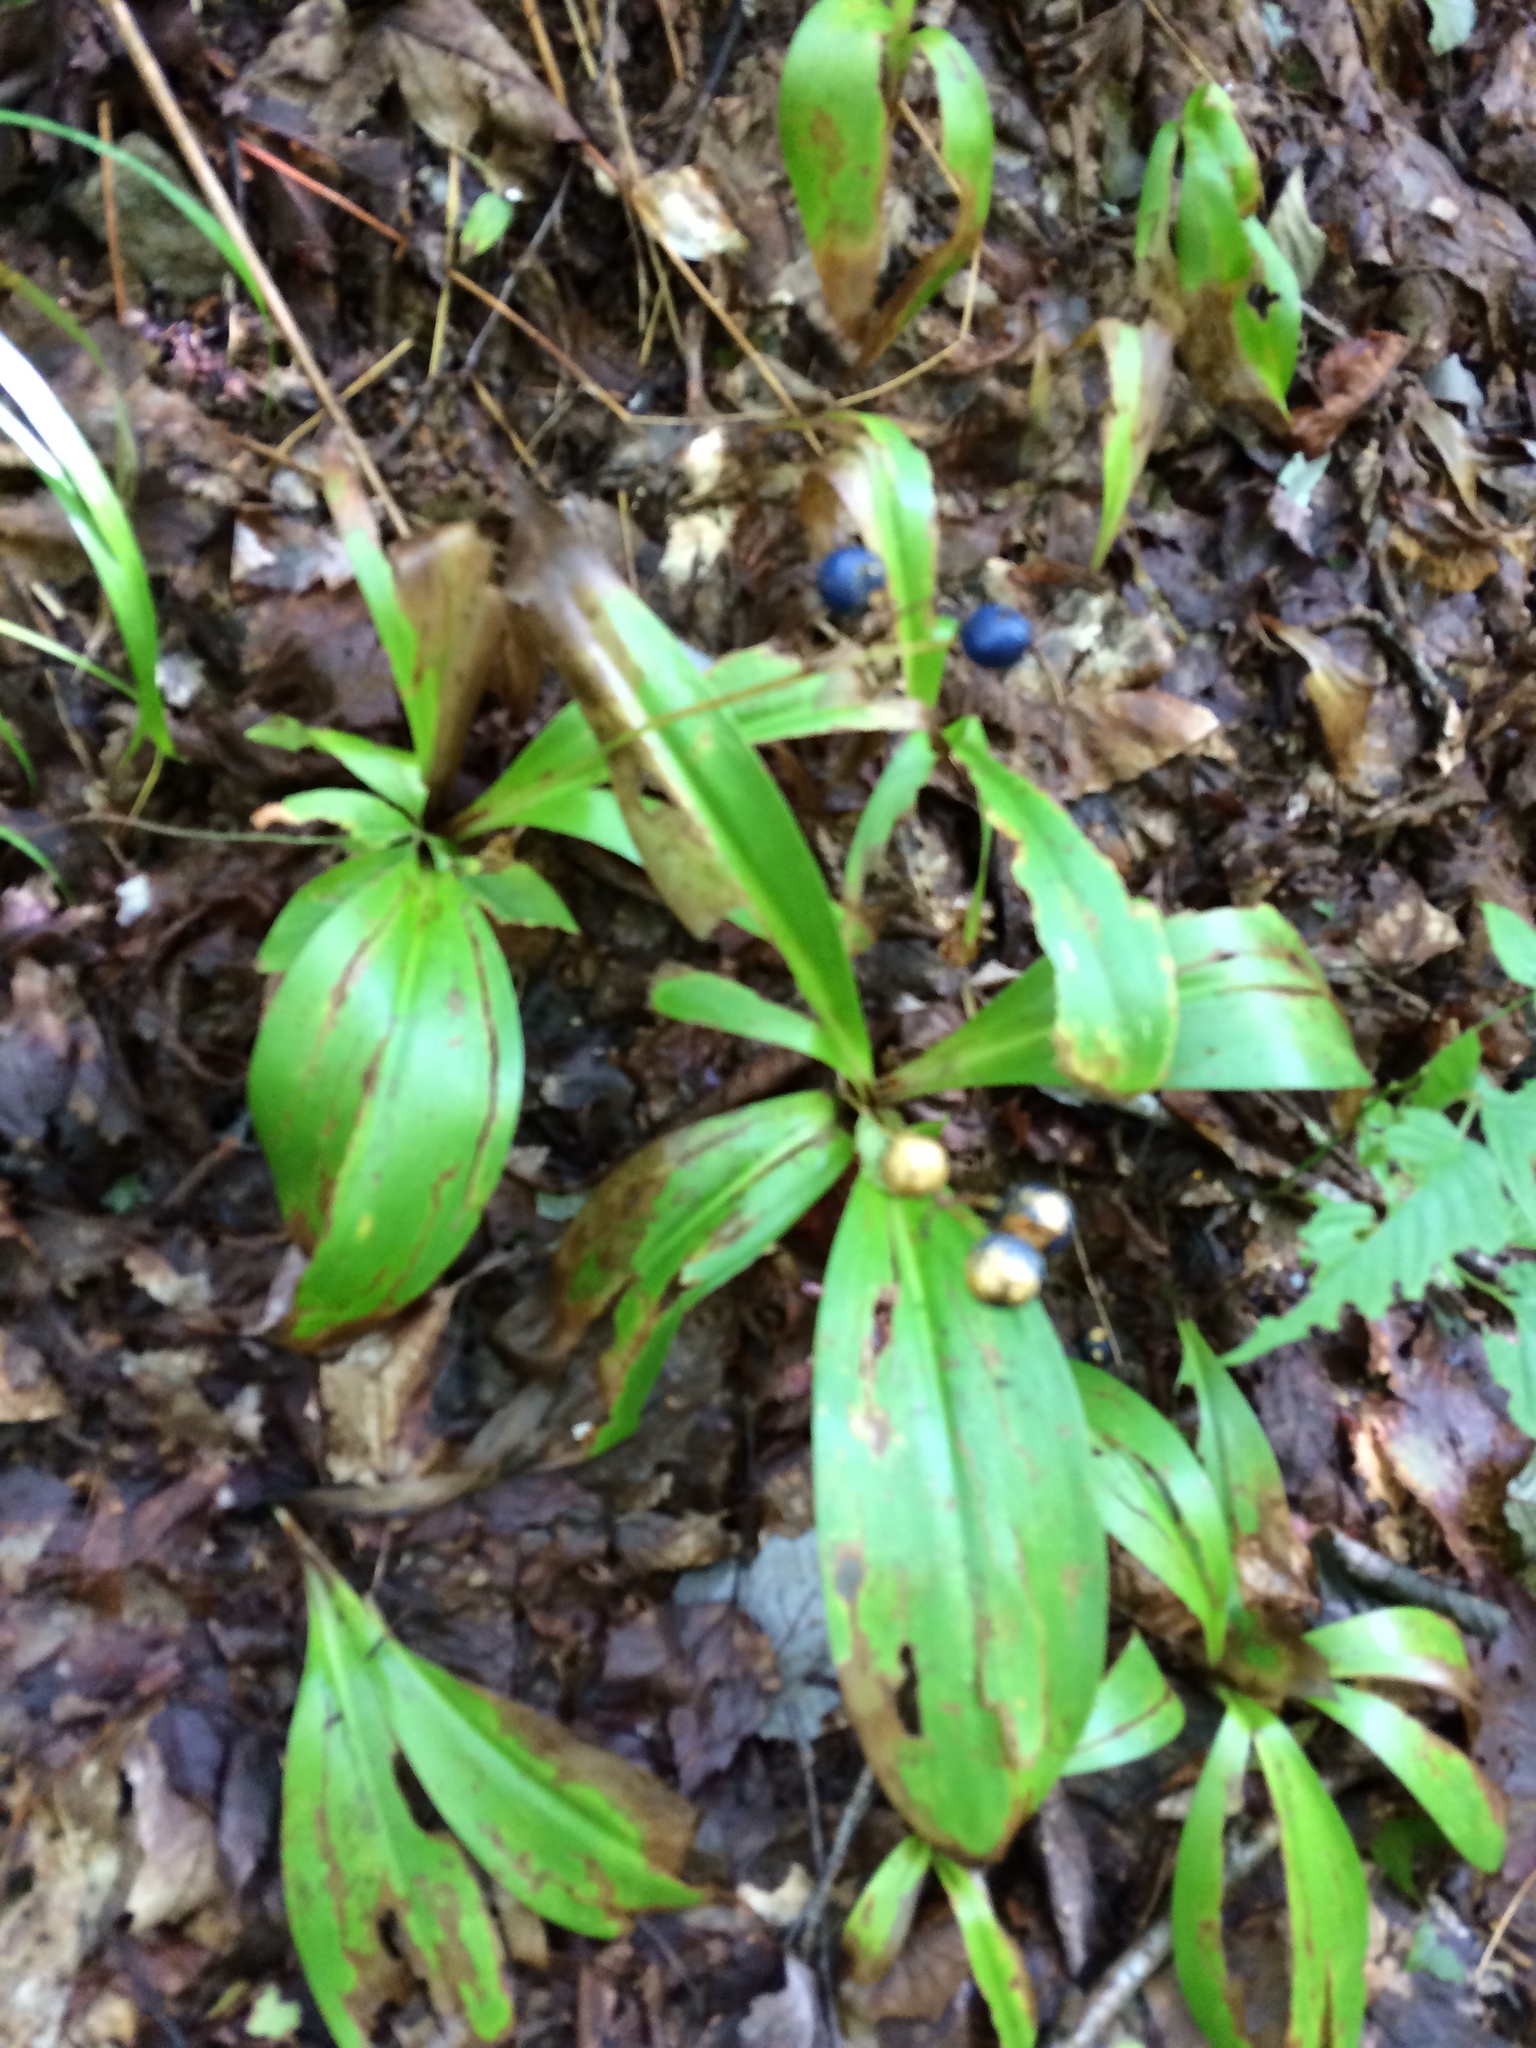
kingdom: Plantae
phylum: Tracheophyta
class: Liliopsida
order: Liliales
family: Liliaceae
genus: Clintonia
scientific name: Clintonia borealis
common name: Yellow clintonia
